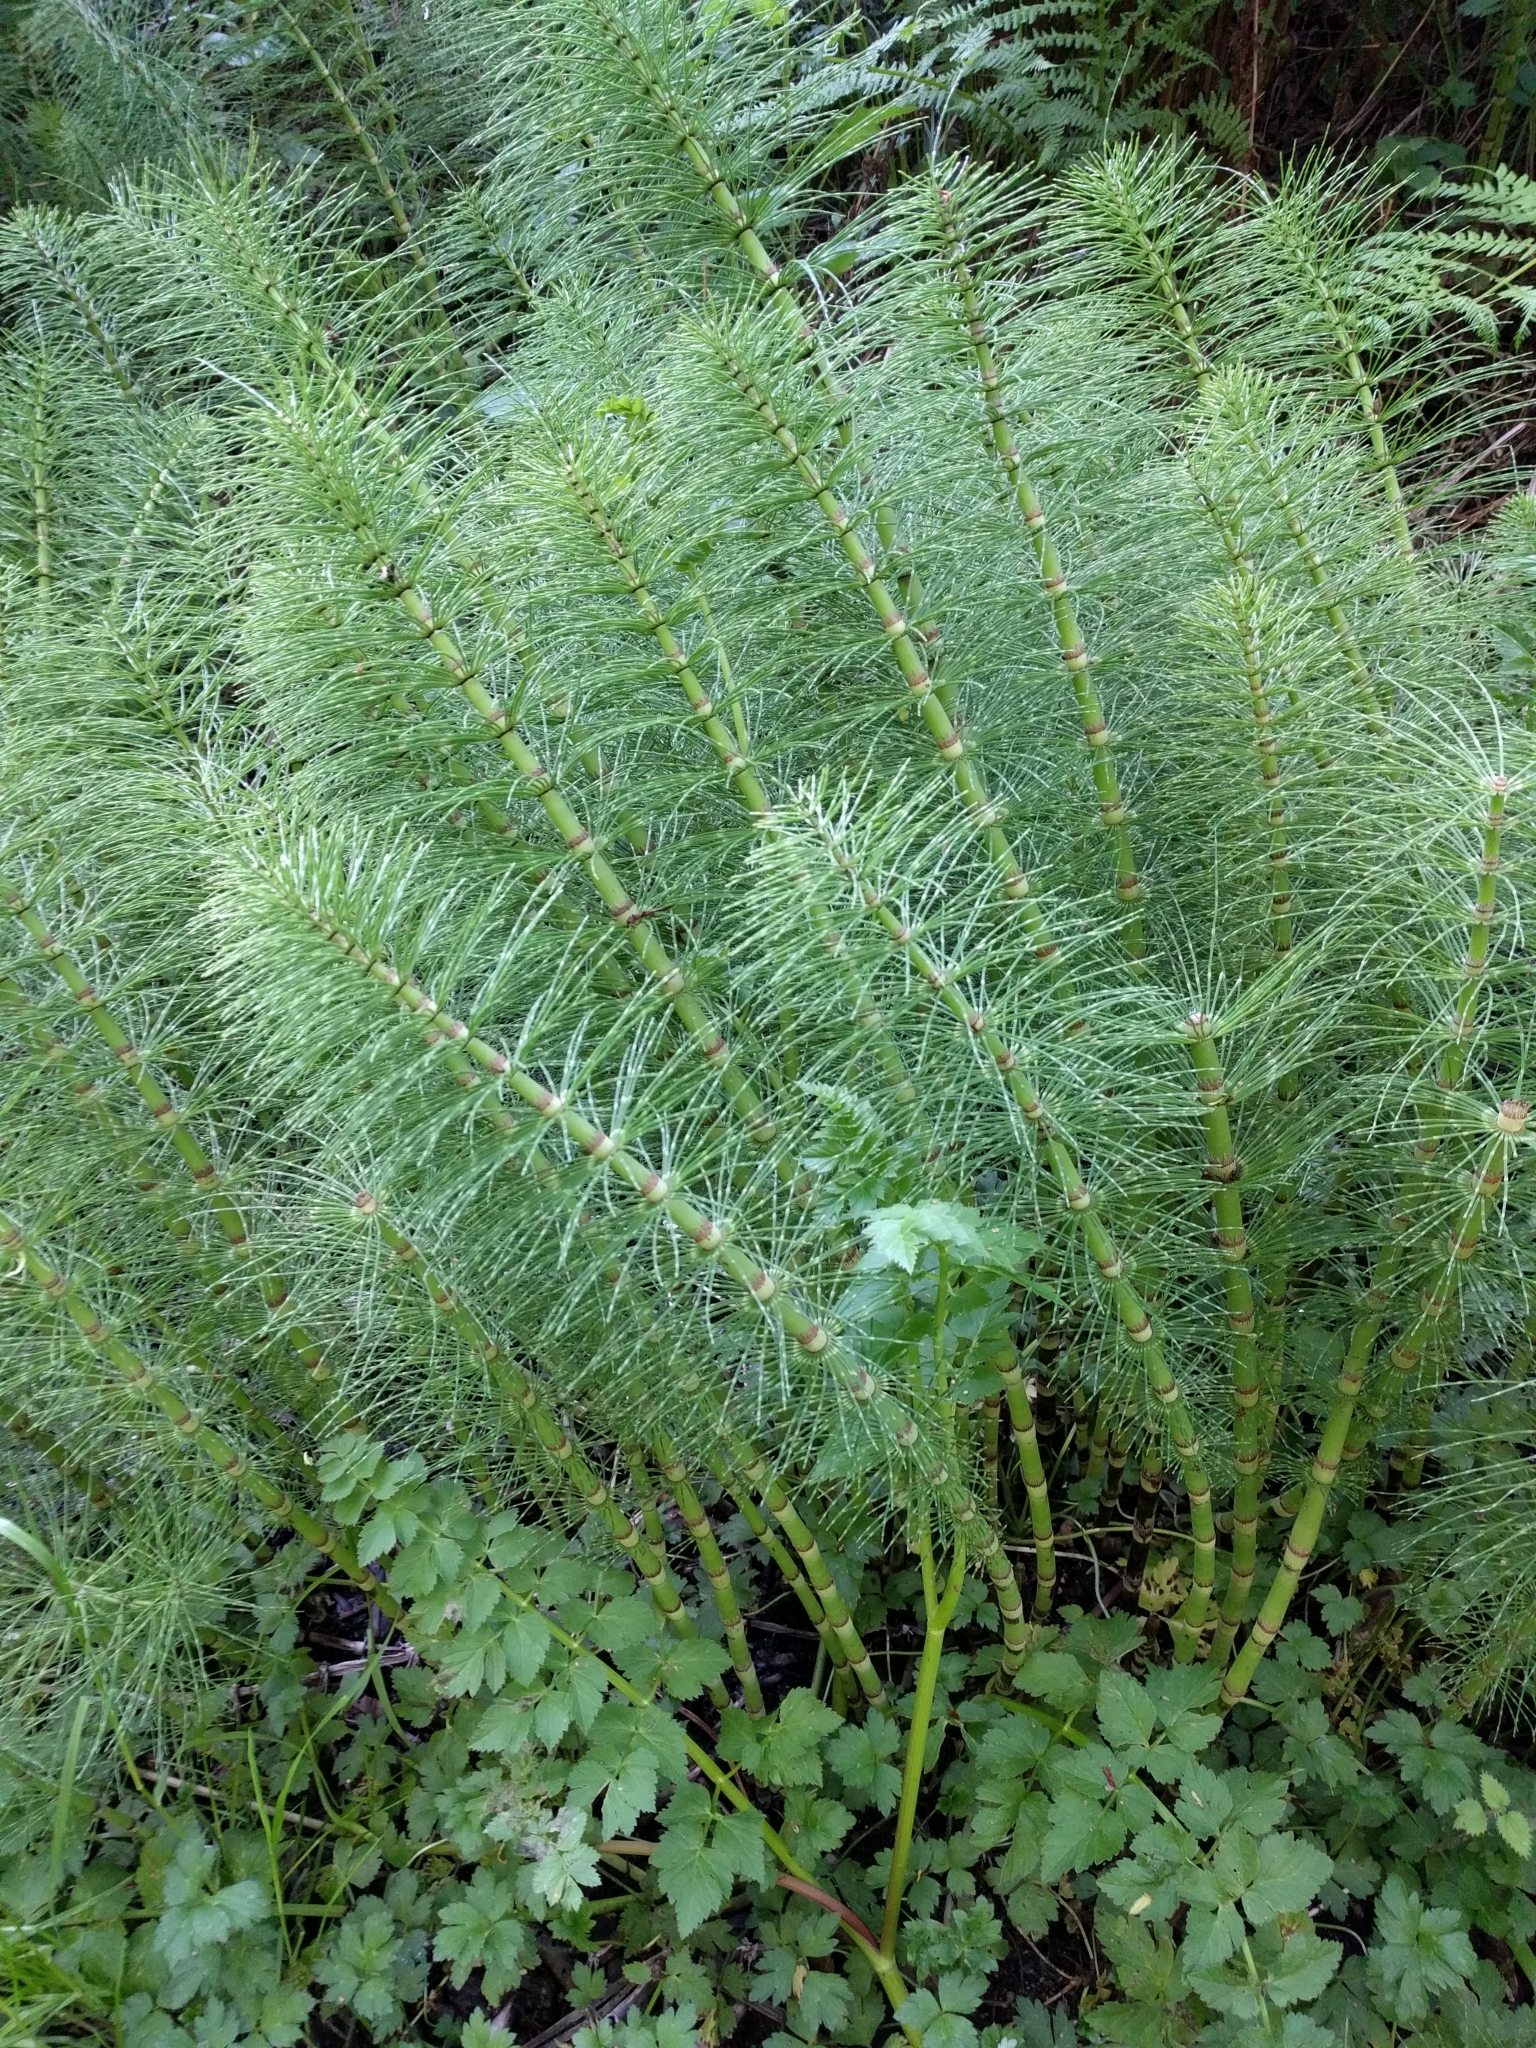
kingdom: Plantae
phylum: Tracheophyta
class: Polypodiopsida
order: Equisetales
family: Equisetaceae
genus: Equisetum
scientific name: Equisetum telmateia
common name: Great horsetail
